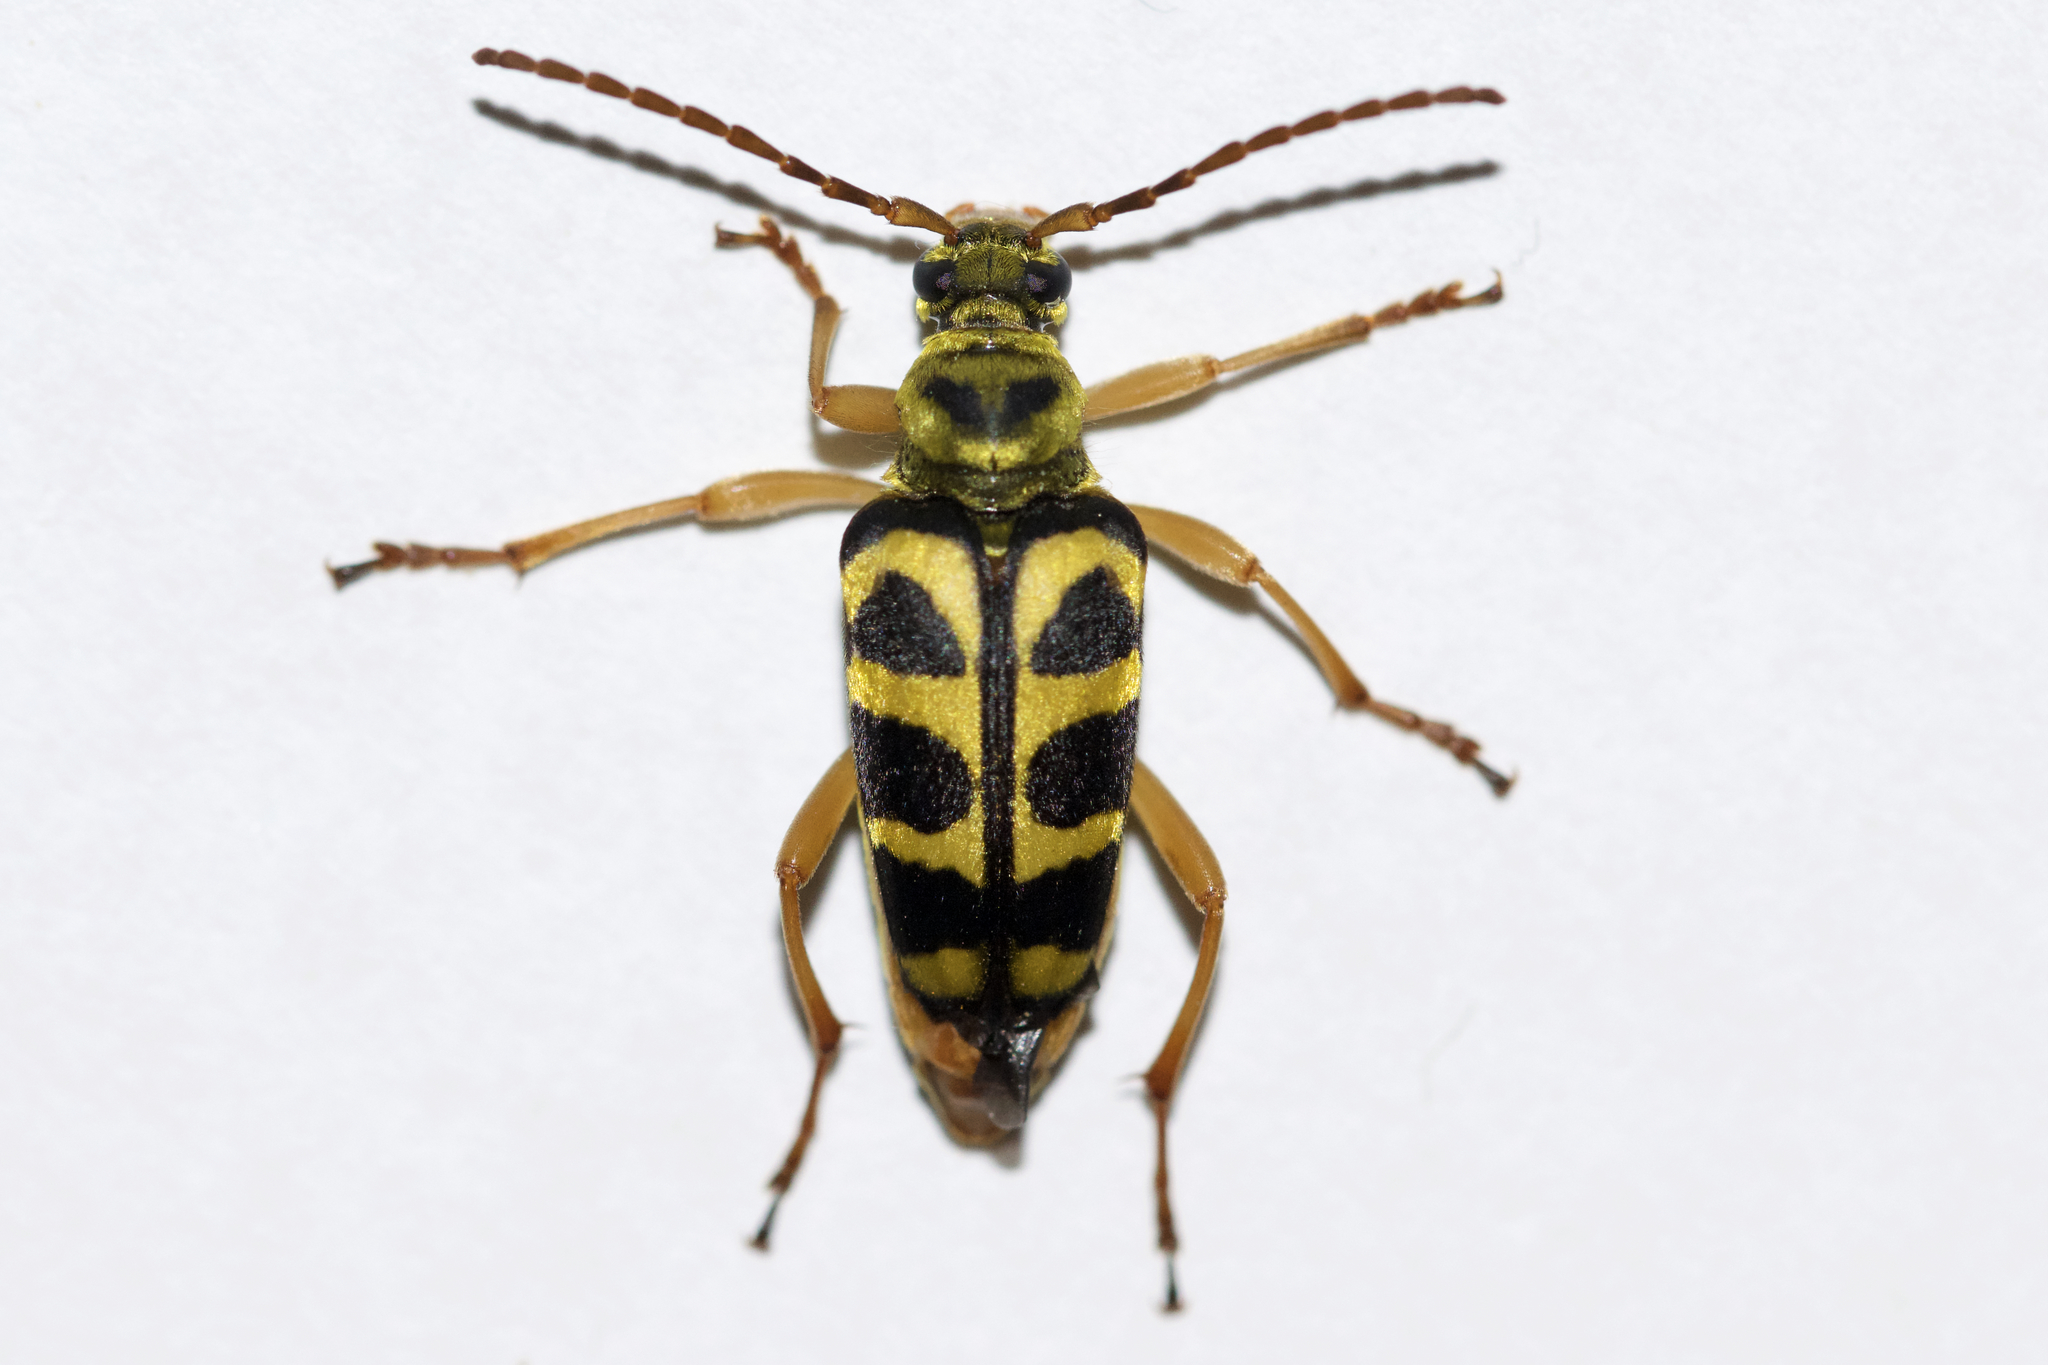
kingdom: Animalia
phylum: Arthropoda
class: Insecta
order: Coleoptera
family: Cerambycidae
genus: Strophiona
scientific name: Strophiona nitens
